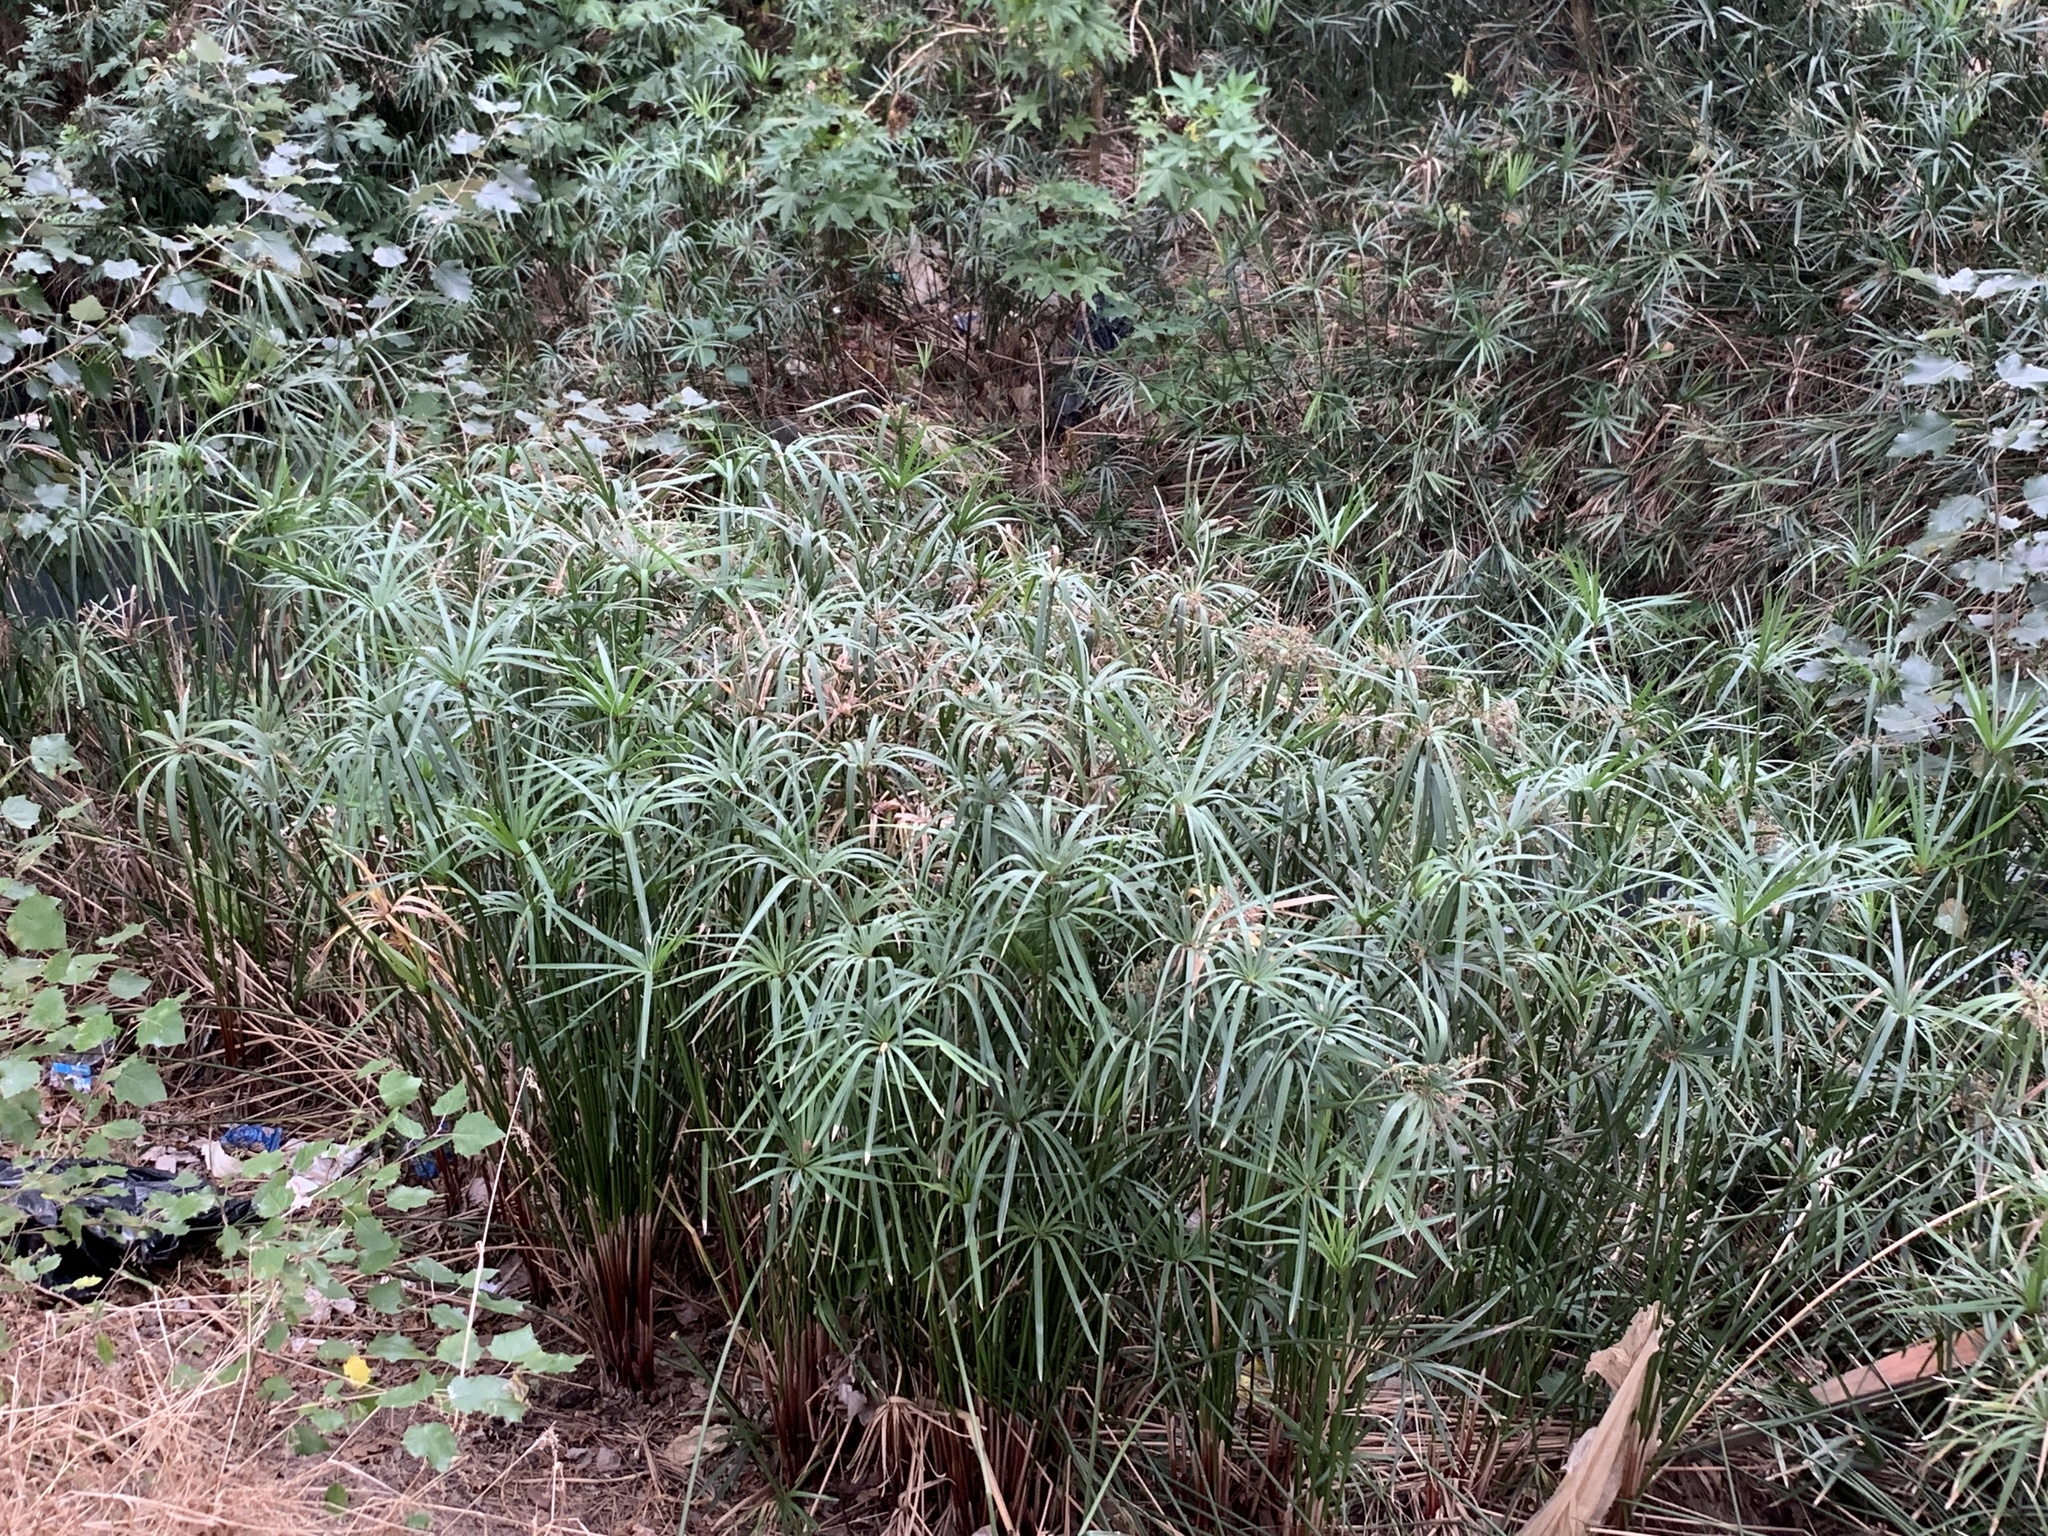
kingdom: Plantae
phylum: Tracheophyta
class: Liliopsida
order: Poales
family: Cyperaceae
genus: Cyperus
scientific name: Cyperus textilis
